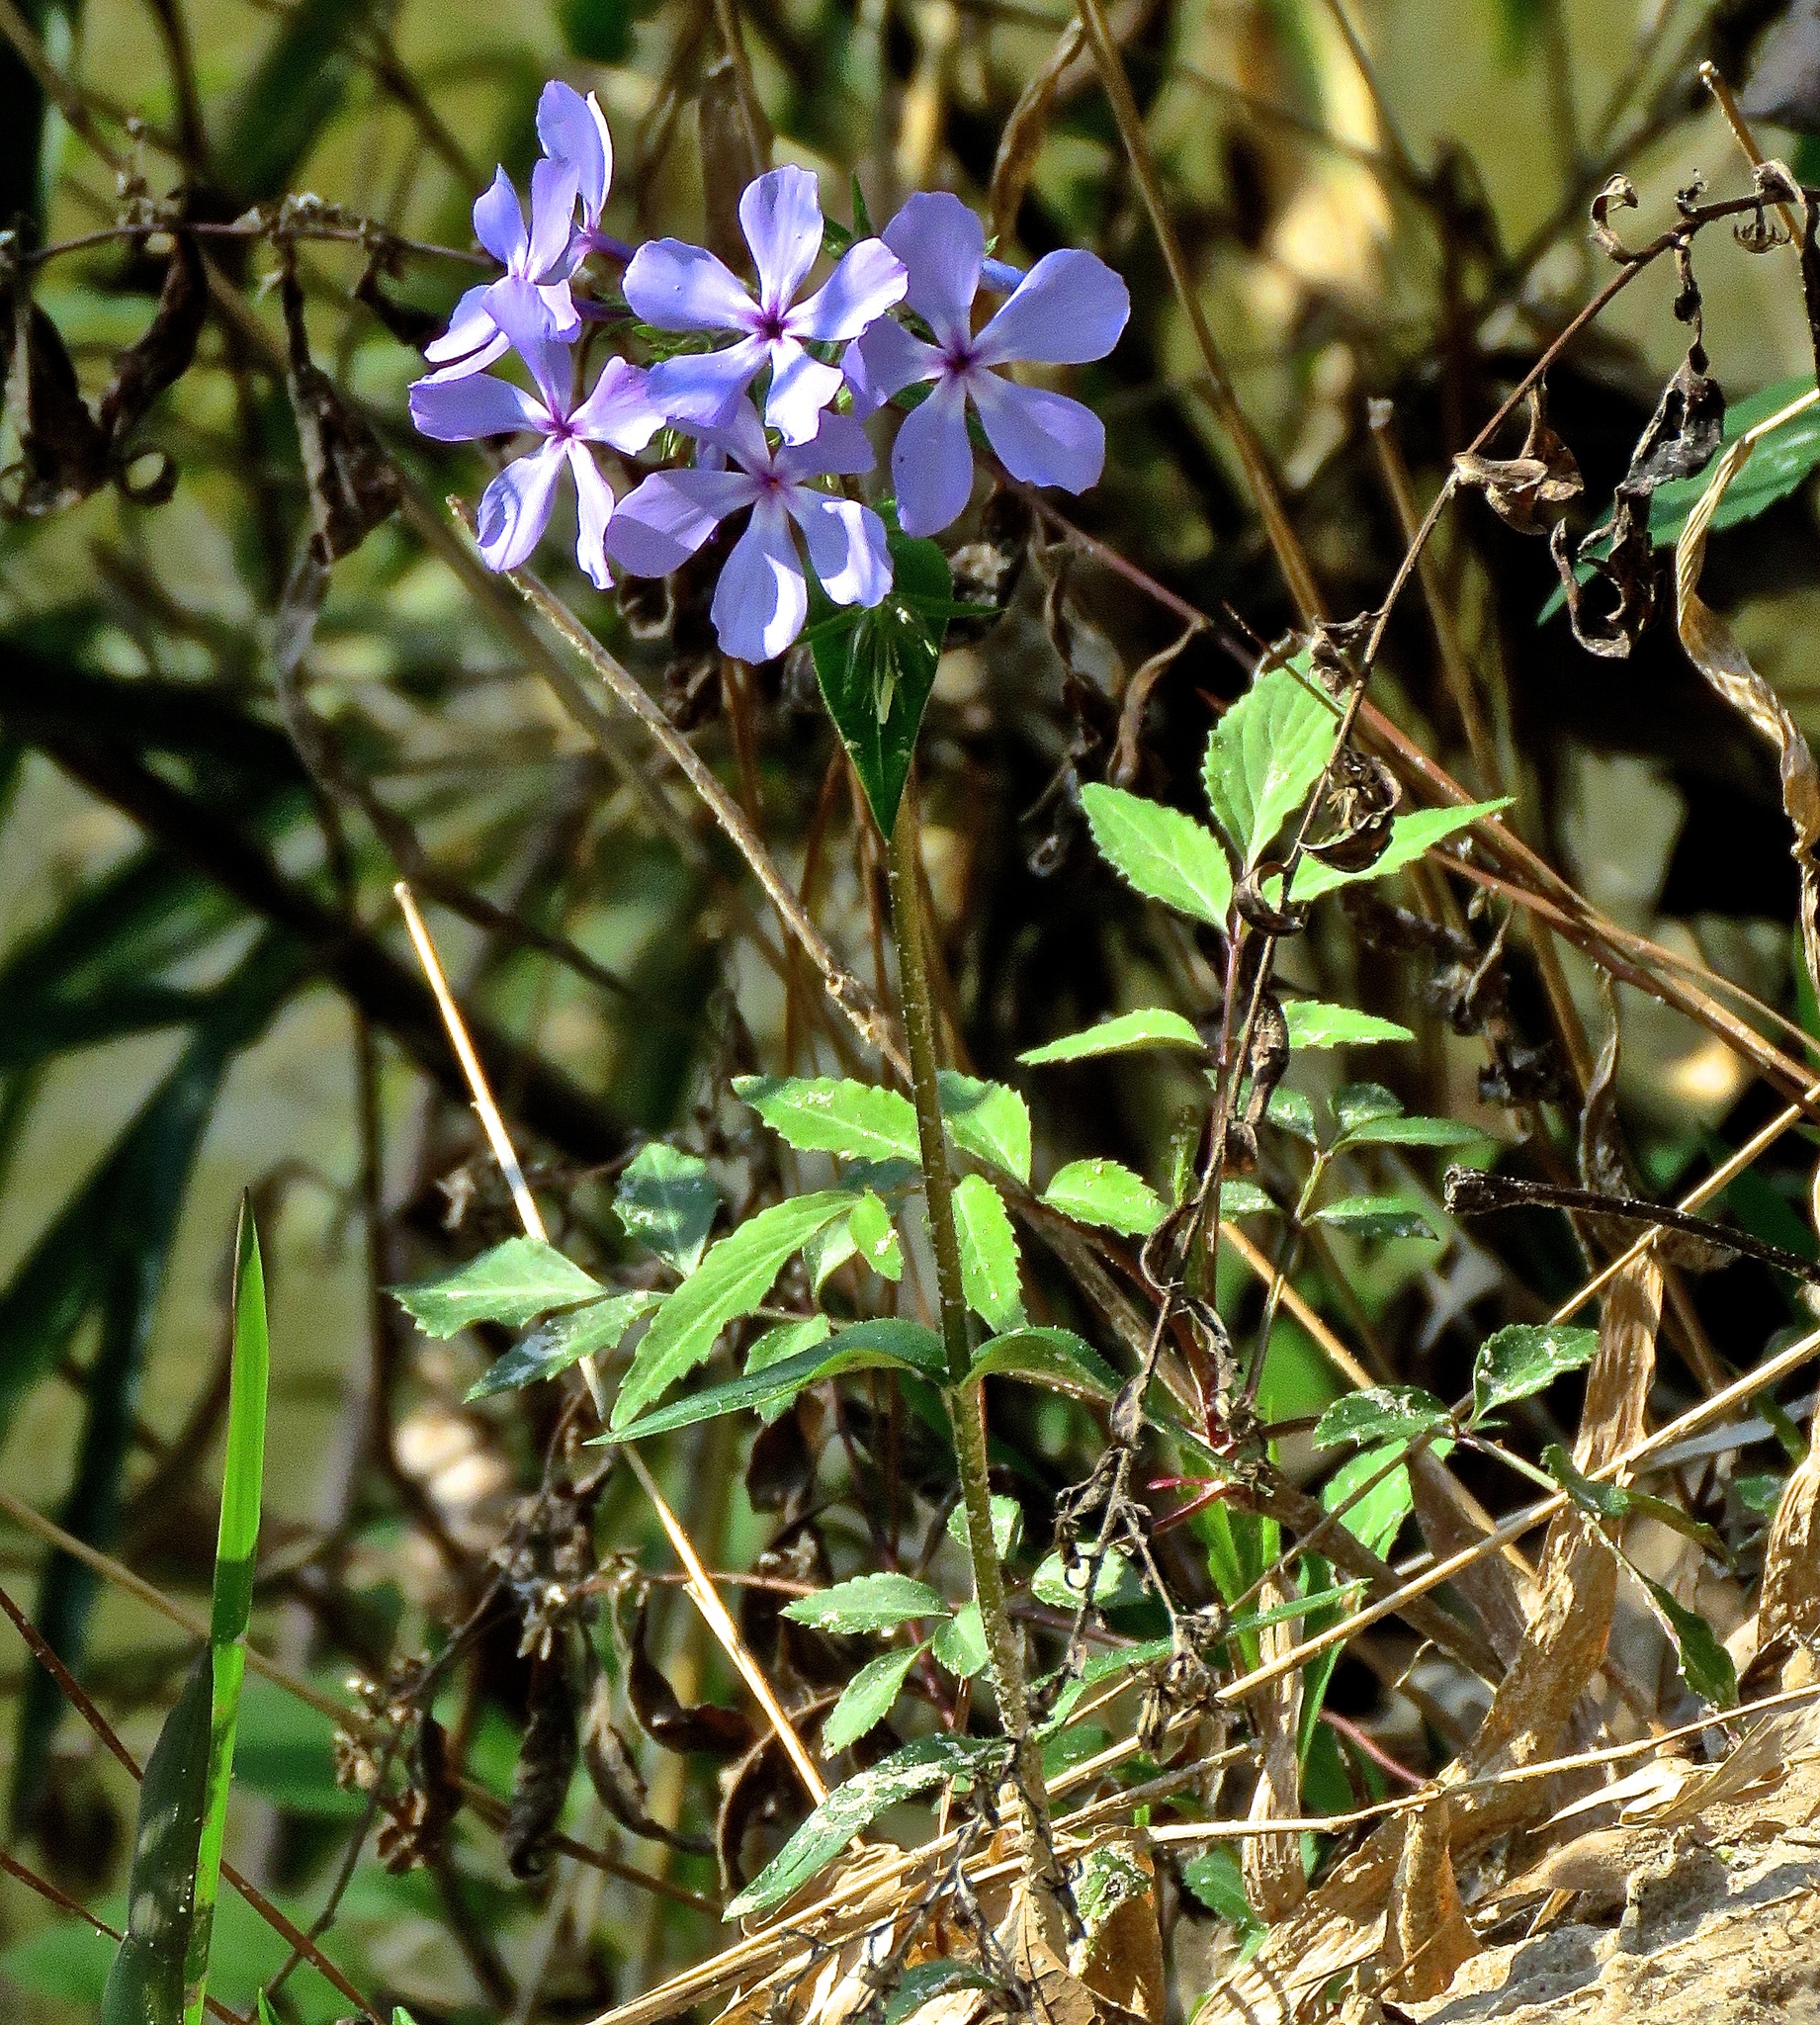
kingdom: Plantae
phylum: Tracheophyta
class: Magnoliopsida
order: Ericales
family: Polemoniaceae
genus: Phlox
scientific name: Phlox divaricata
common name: Blue phlox
